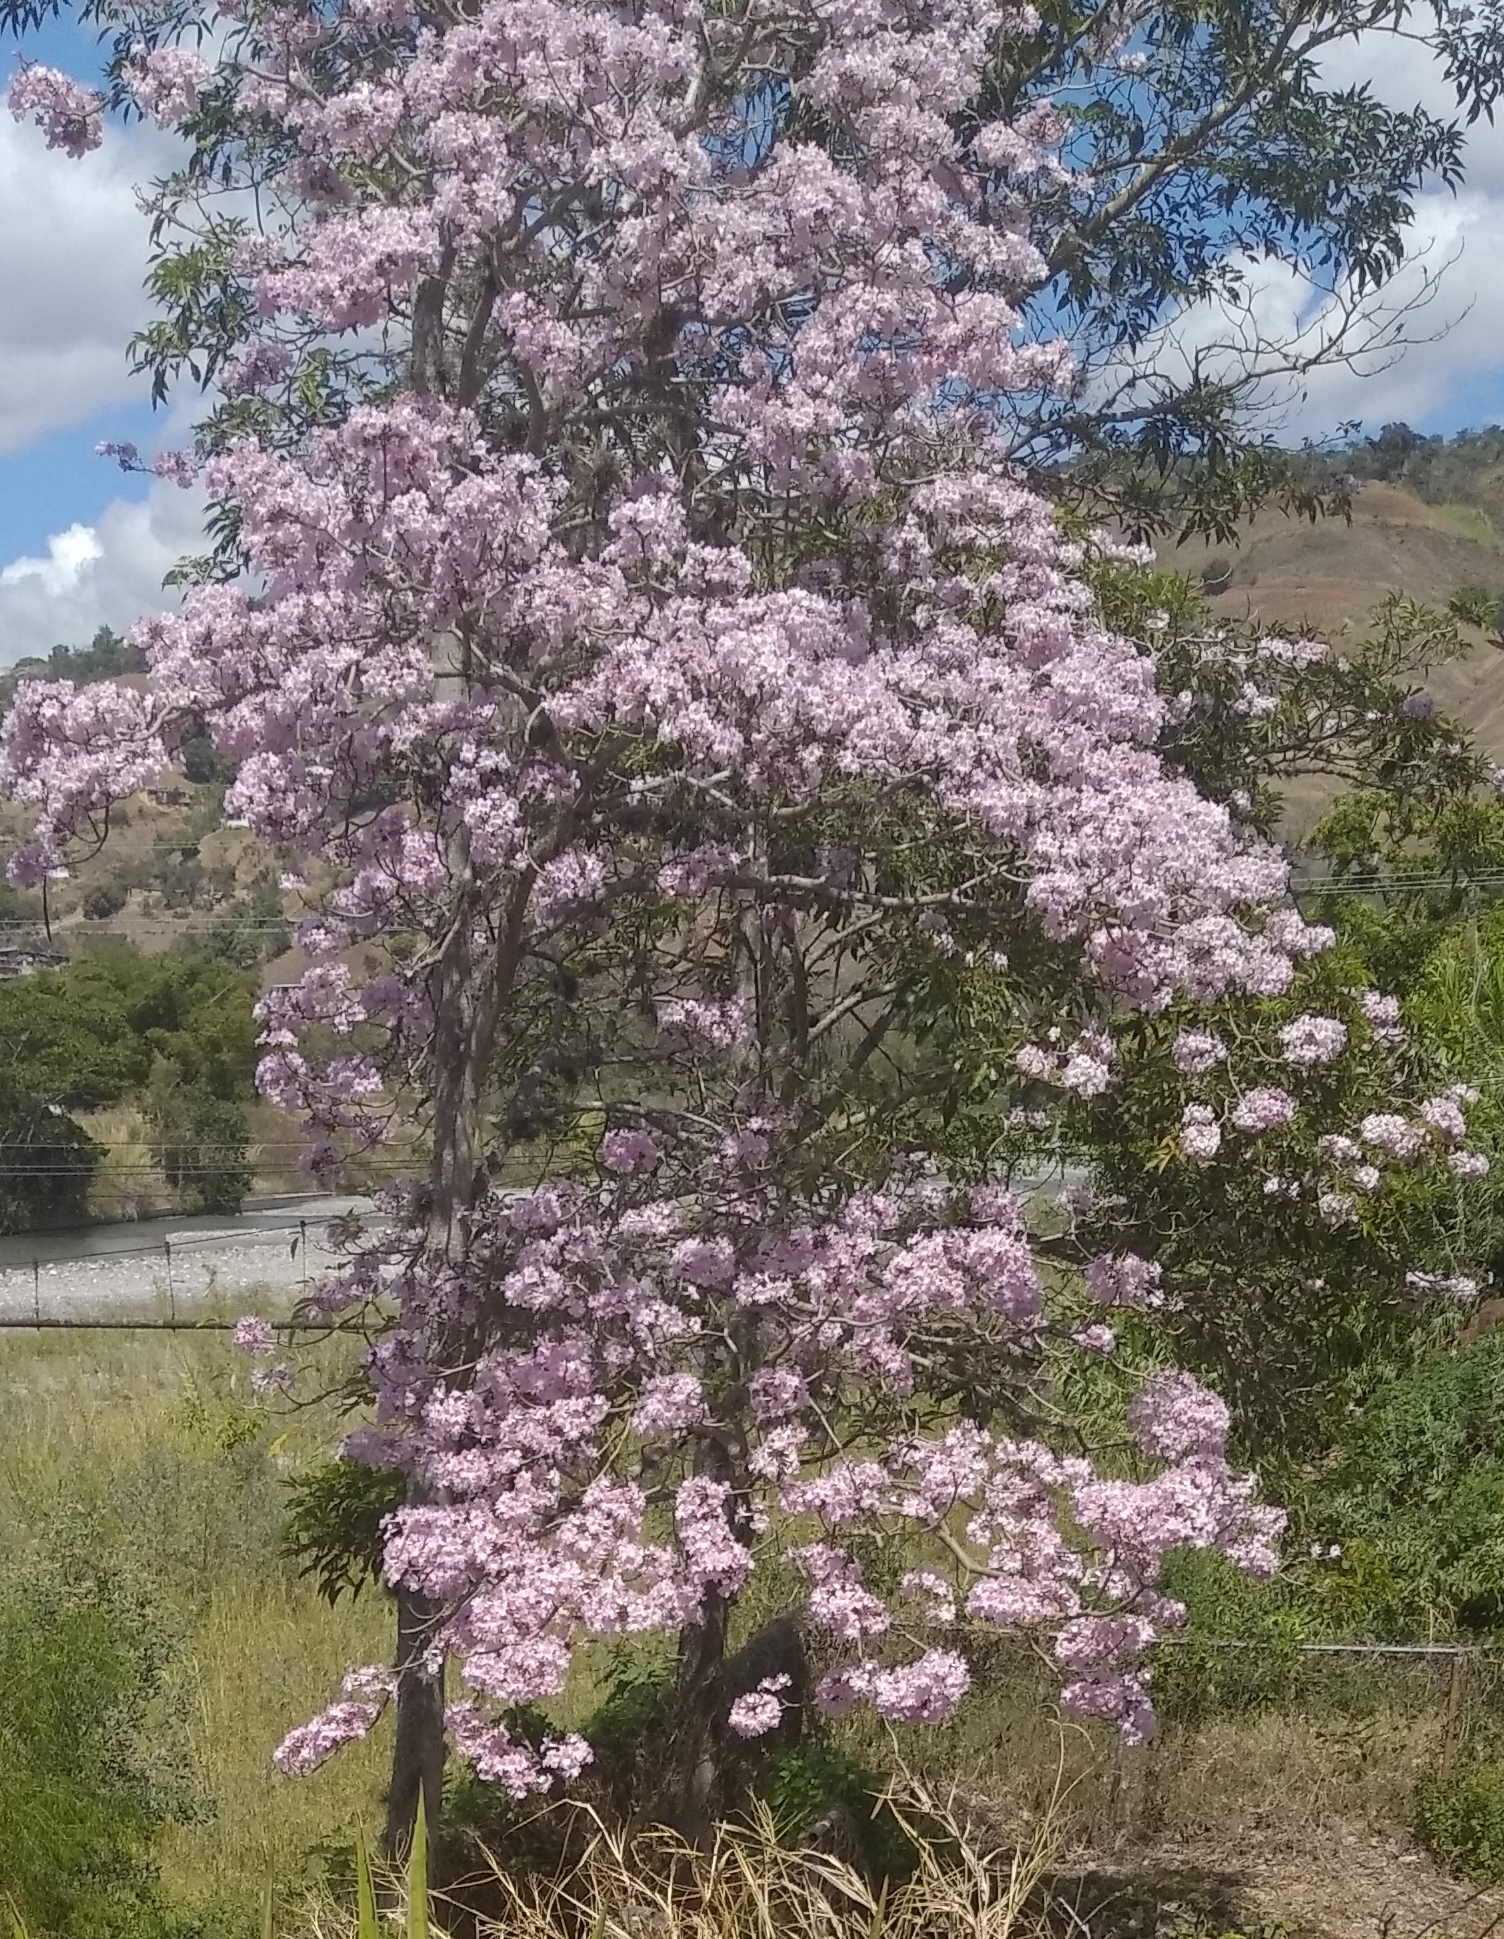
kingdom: Plantae
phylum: Tracheophyta
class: Magnoliopsida
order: Lamiales
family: Bignoniaceae
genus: Tabebuia
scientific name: Tabebuia rosea
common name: Pink poui
